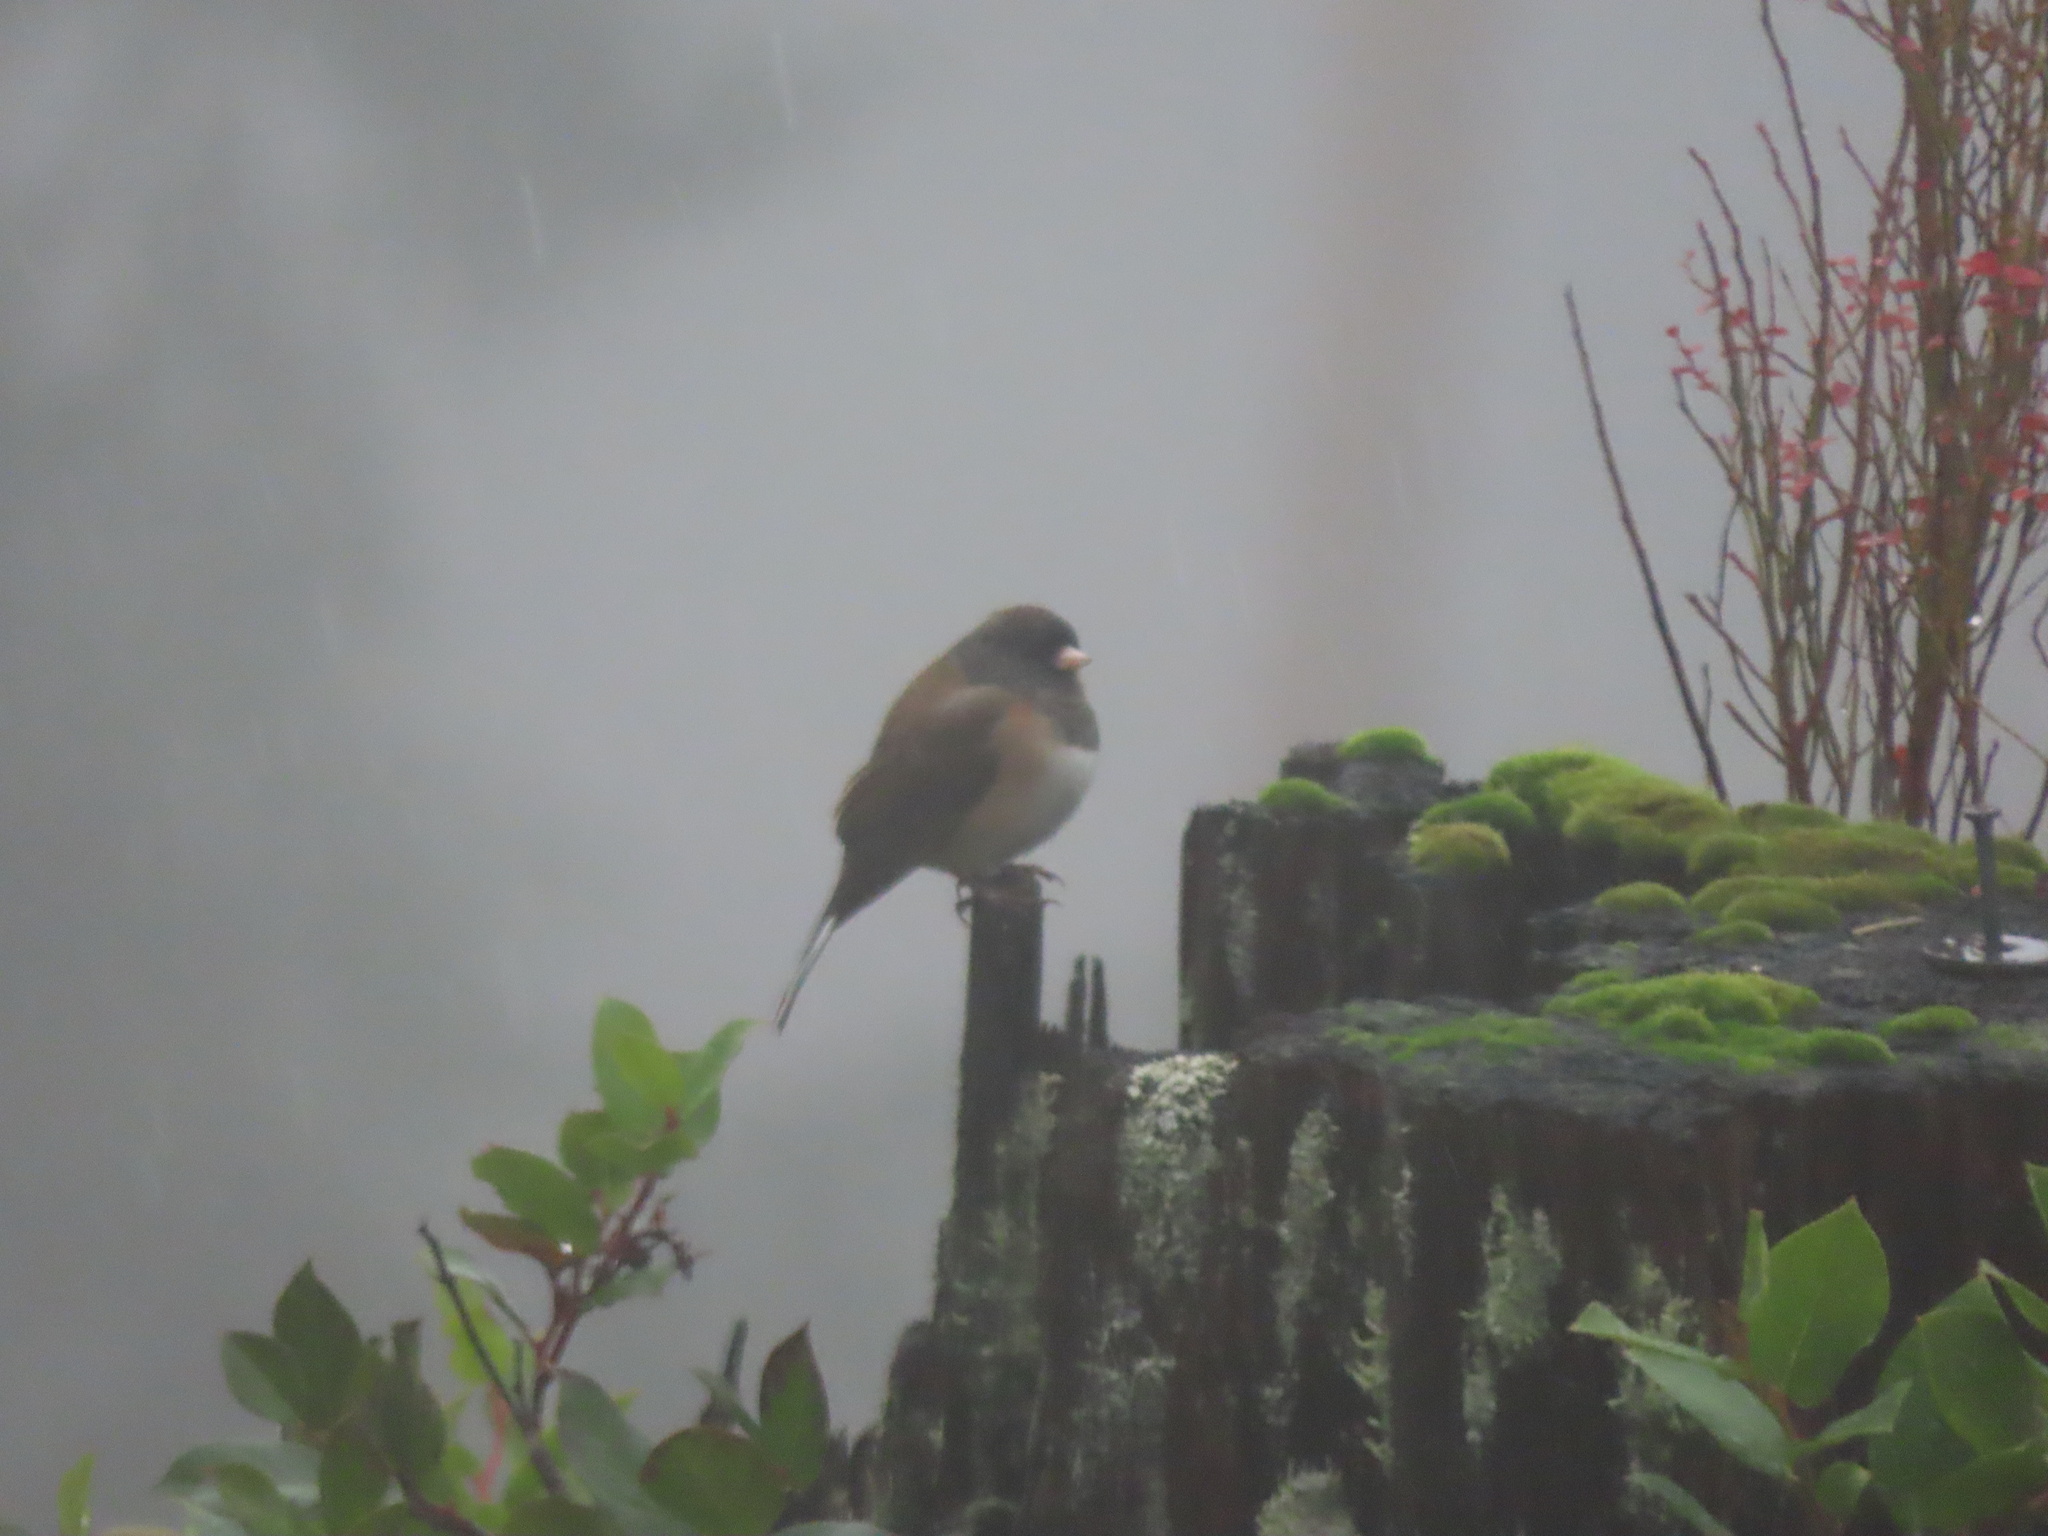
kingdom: Animalia
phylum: Chordata
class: Aves
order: Passeriformes
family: Passerellidae
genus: Junco
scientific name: Junco hyemalis
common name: Dark-eyed junco
